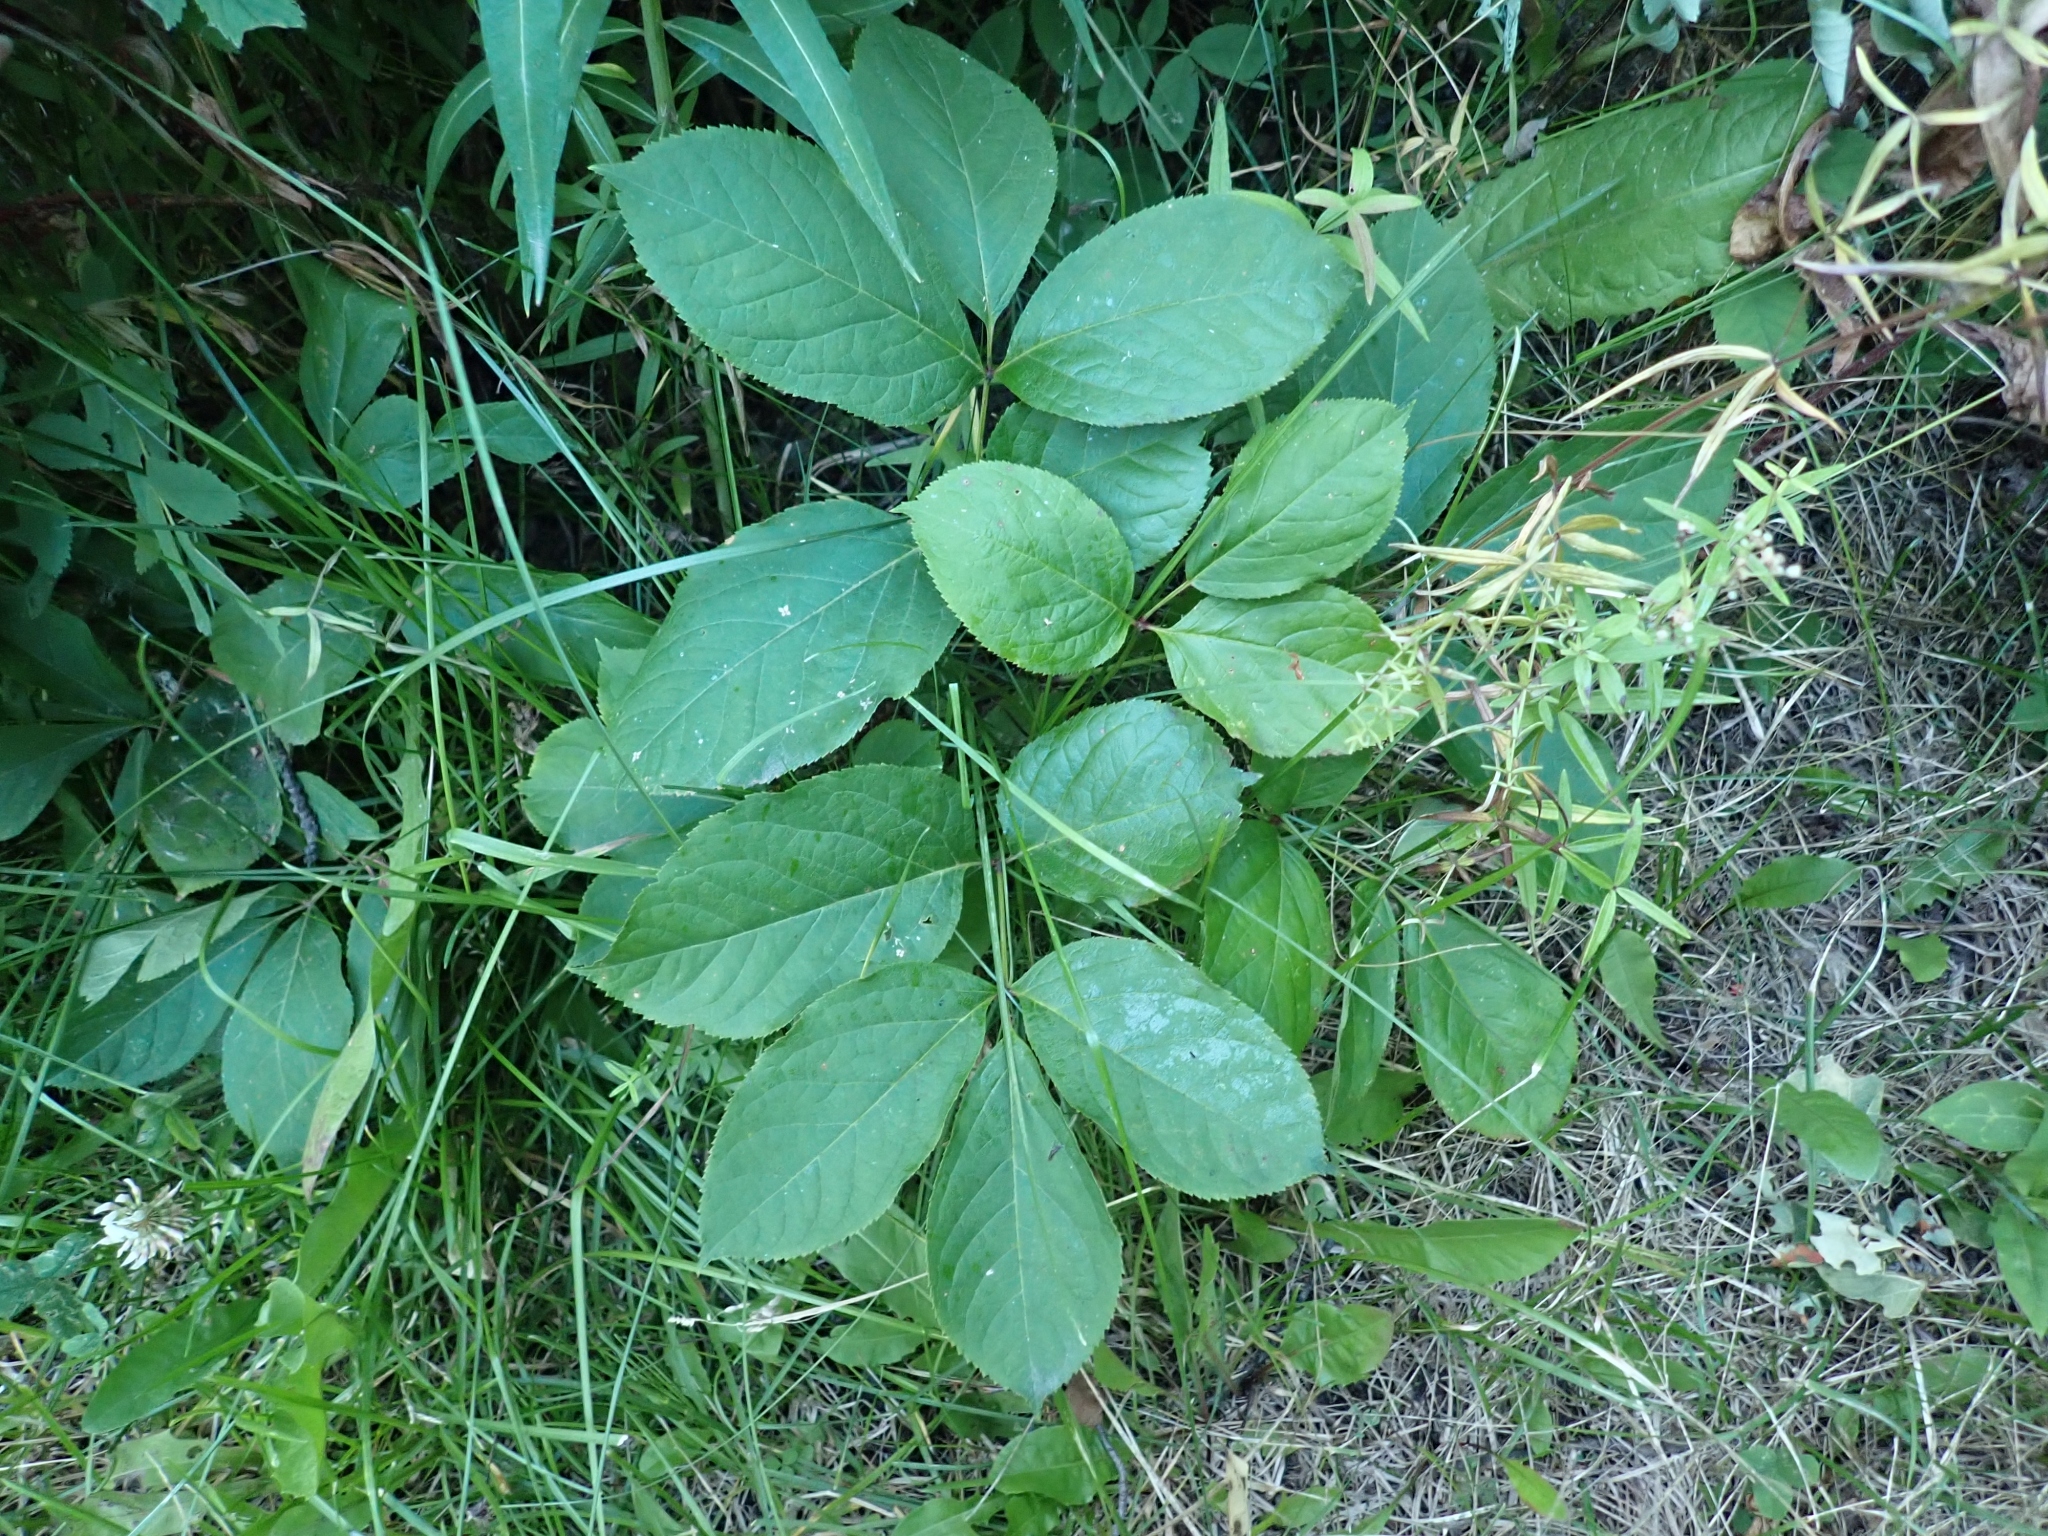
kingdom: Plantae
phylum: Tracheophyta
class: Magnoliopsida
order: Apiales
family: Araliaceae
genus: Aralia
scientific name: Aralia nudicaulis
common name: Wild sarsaparilla
